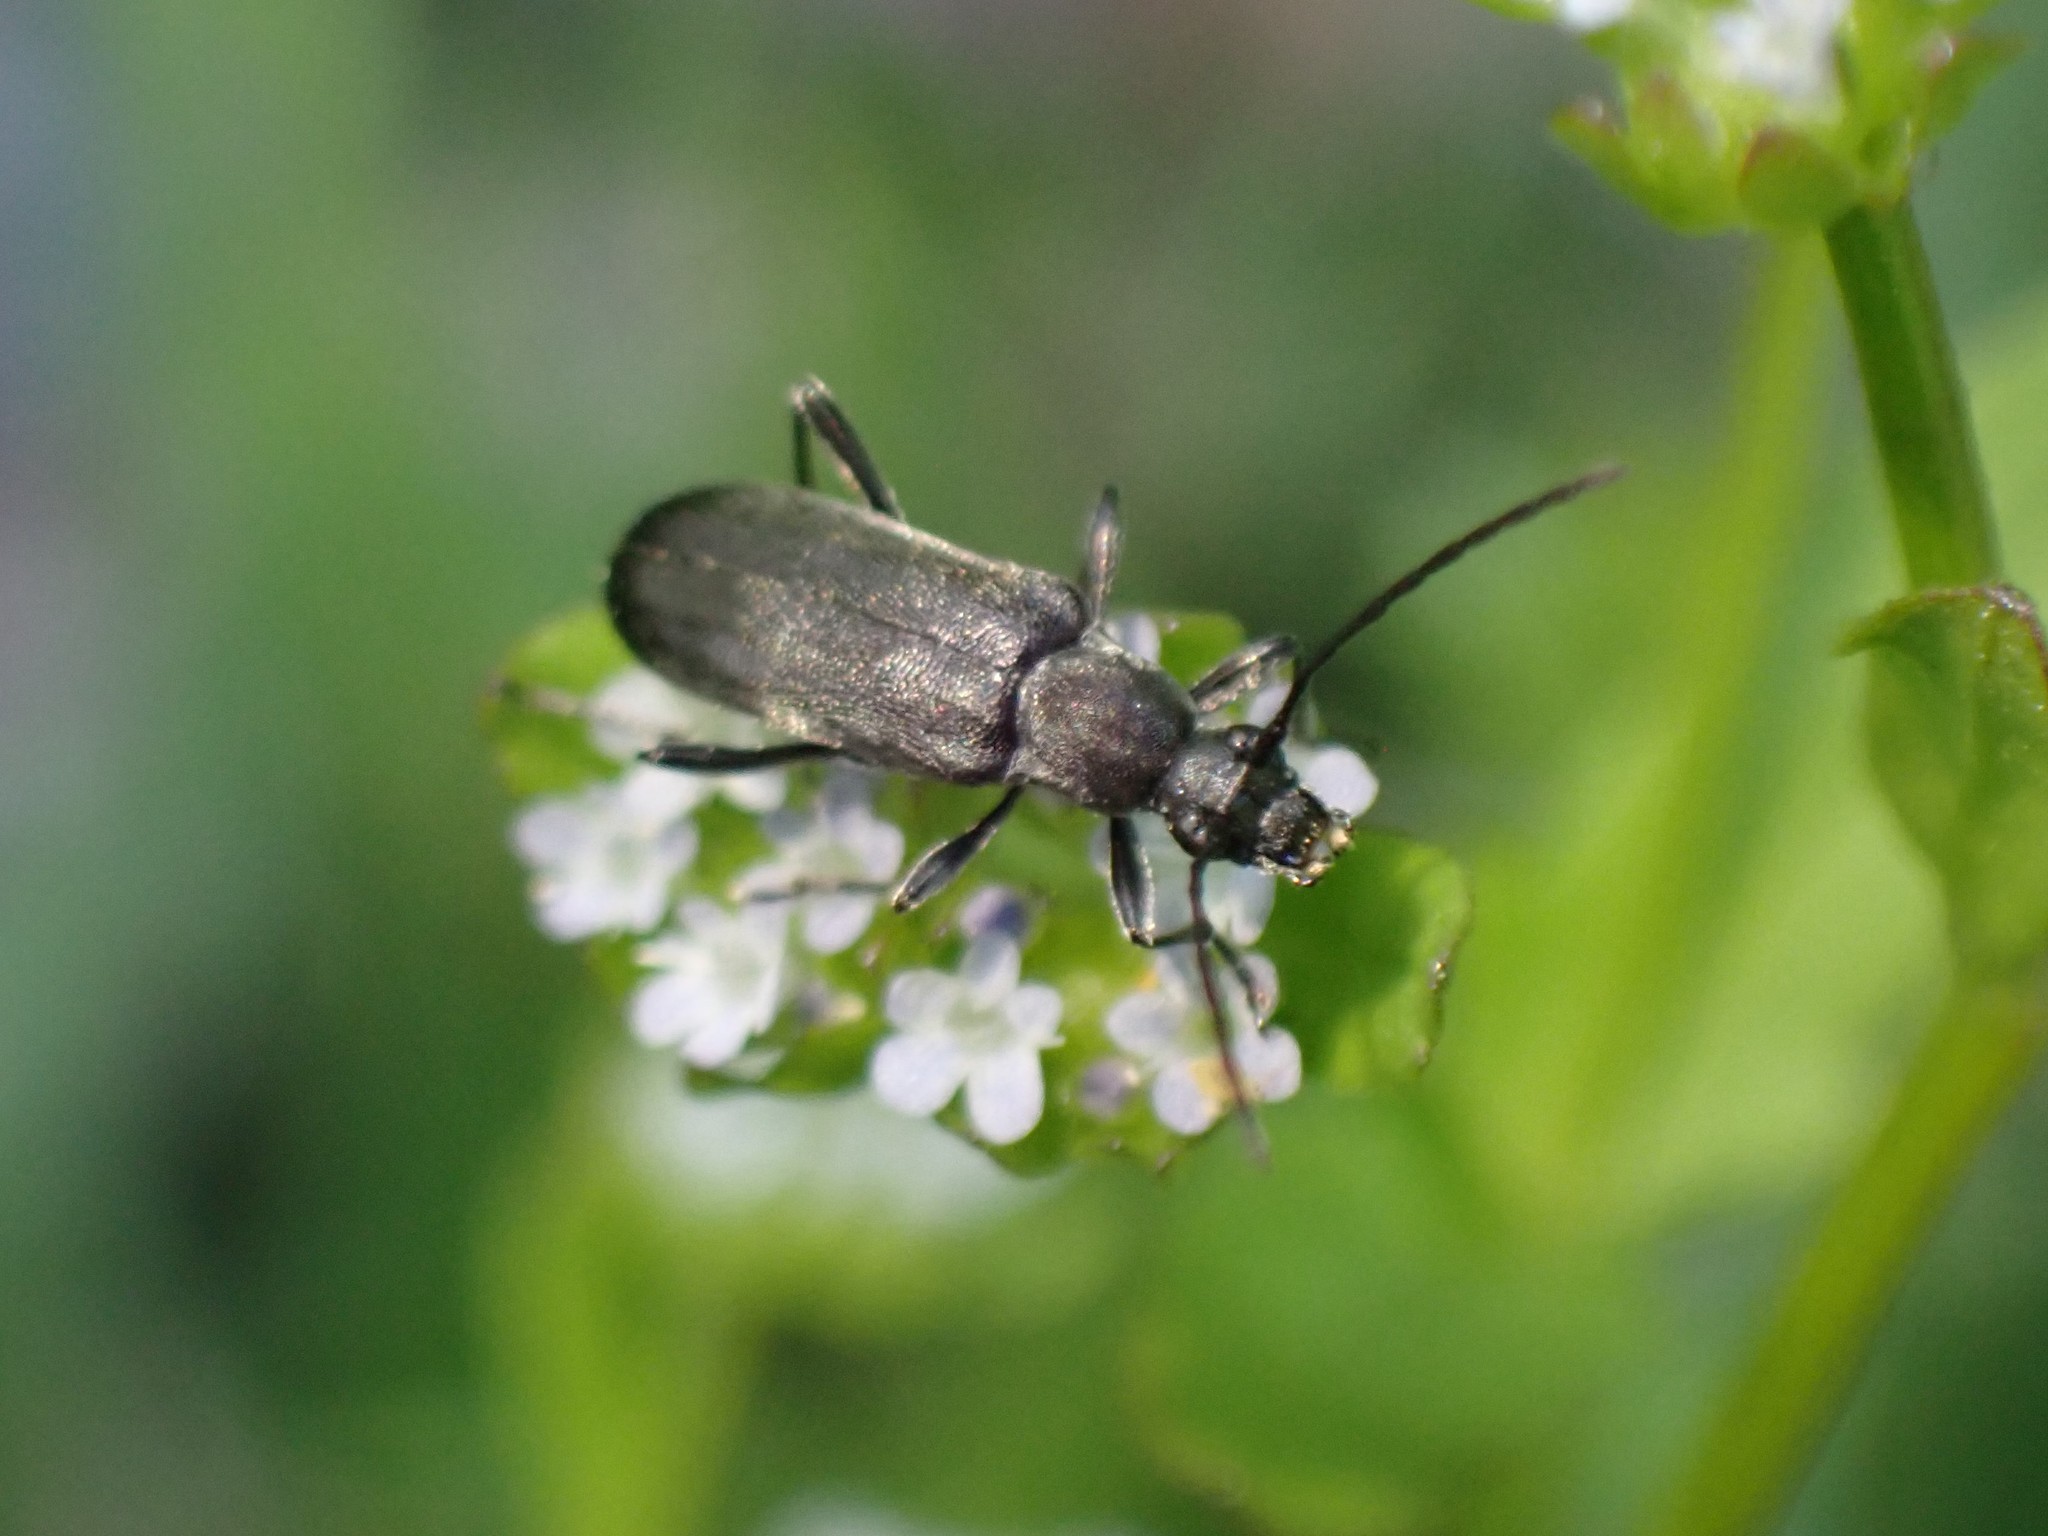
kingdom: Animalia
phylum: Arthropoda
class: Insecta
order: Coleoptera
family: Cerambycidae
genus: Grammoptera
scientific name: Grammoptera subargentata
